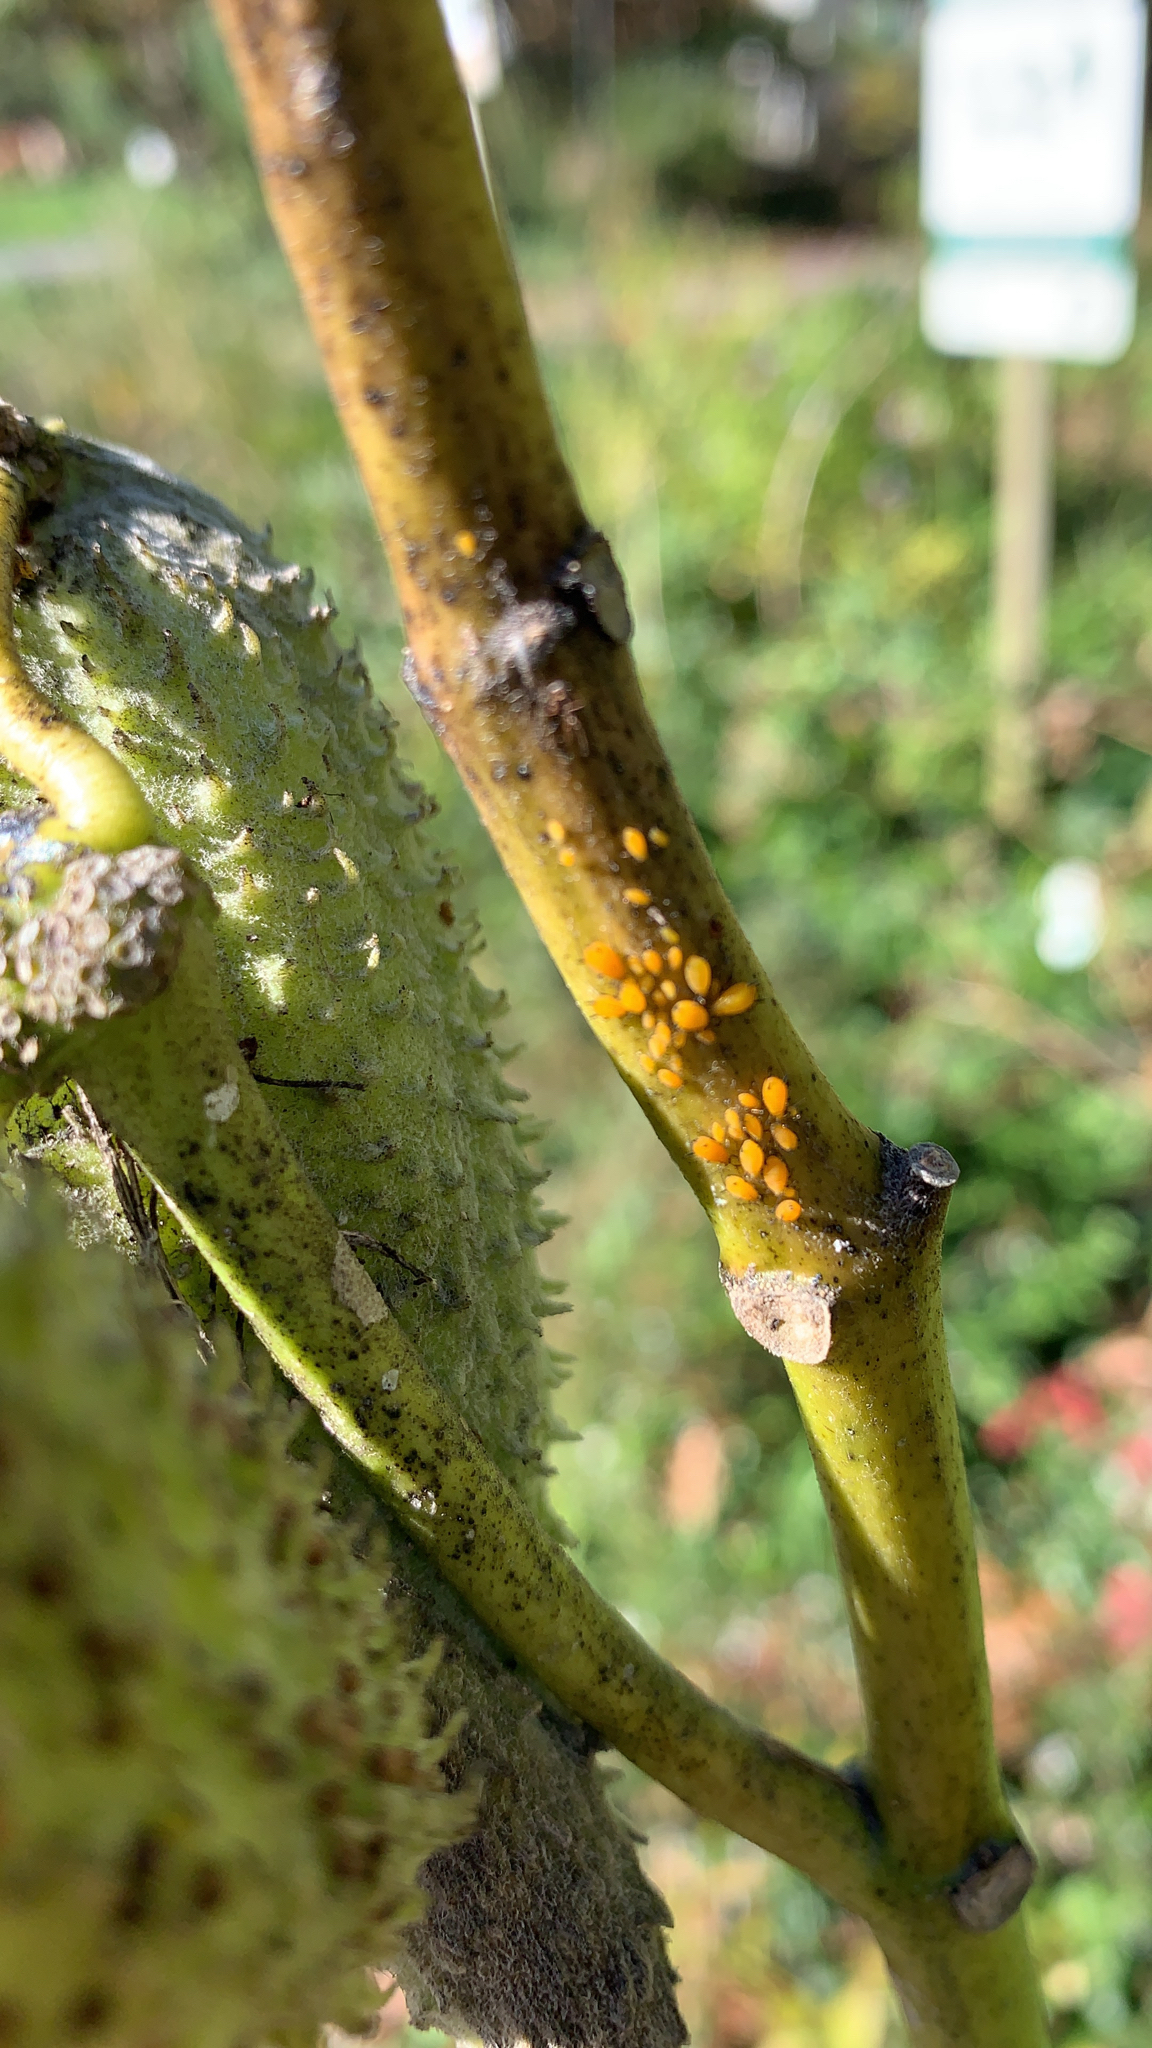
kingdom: Animalia
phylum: Arthropoda
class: Insecta
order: Hemiptera
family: Aphididae
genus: Aphis
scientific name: Aphis nerii
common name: Oleander aphid
